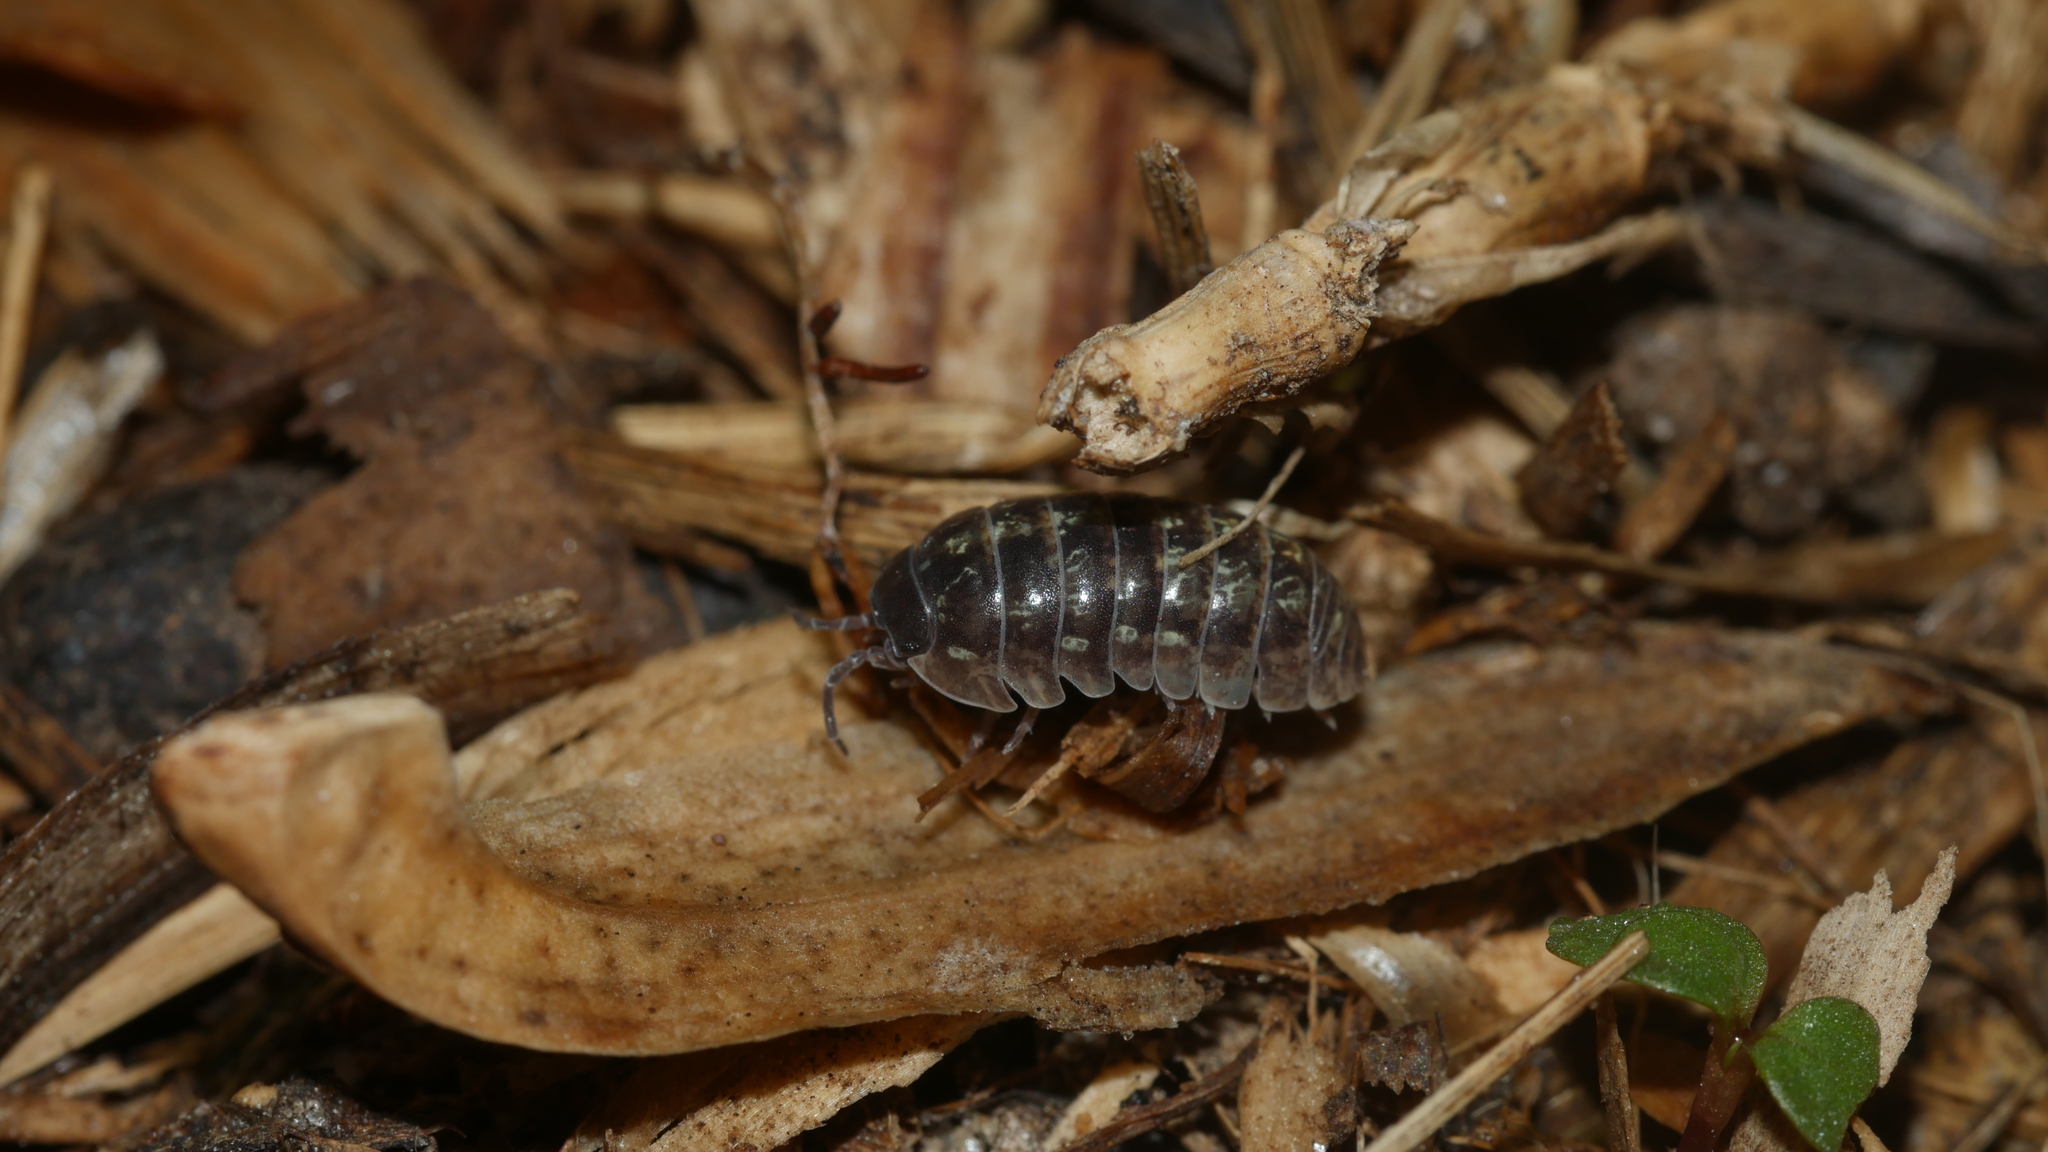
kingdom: Animalia
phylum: Arthropoda
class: Malacostraca
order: Isopoda
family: Armadillidiidae
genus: Armadillidium
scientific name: Armadillidium vulgare
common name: Common pill woodlouse
